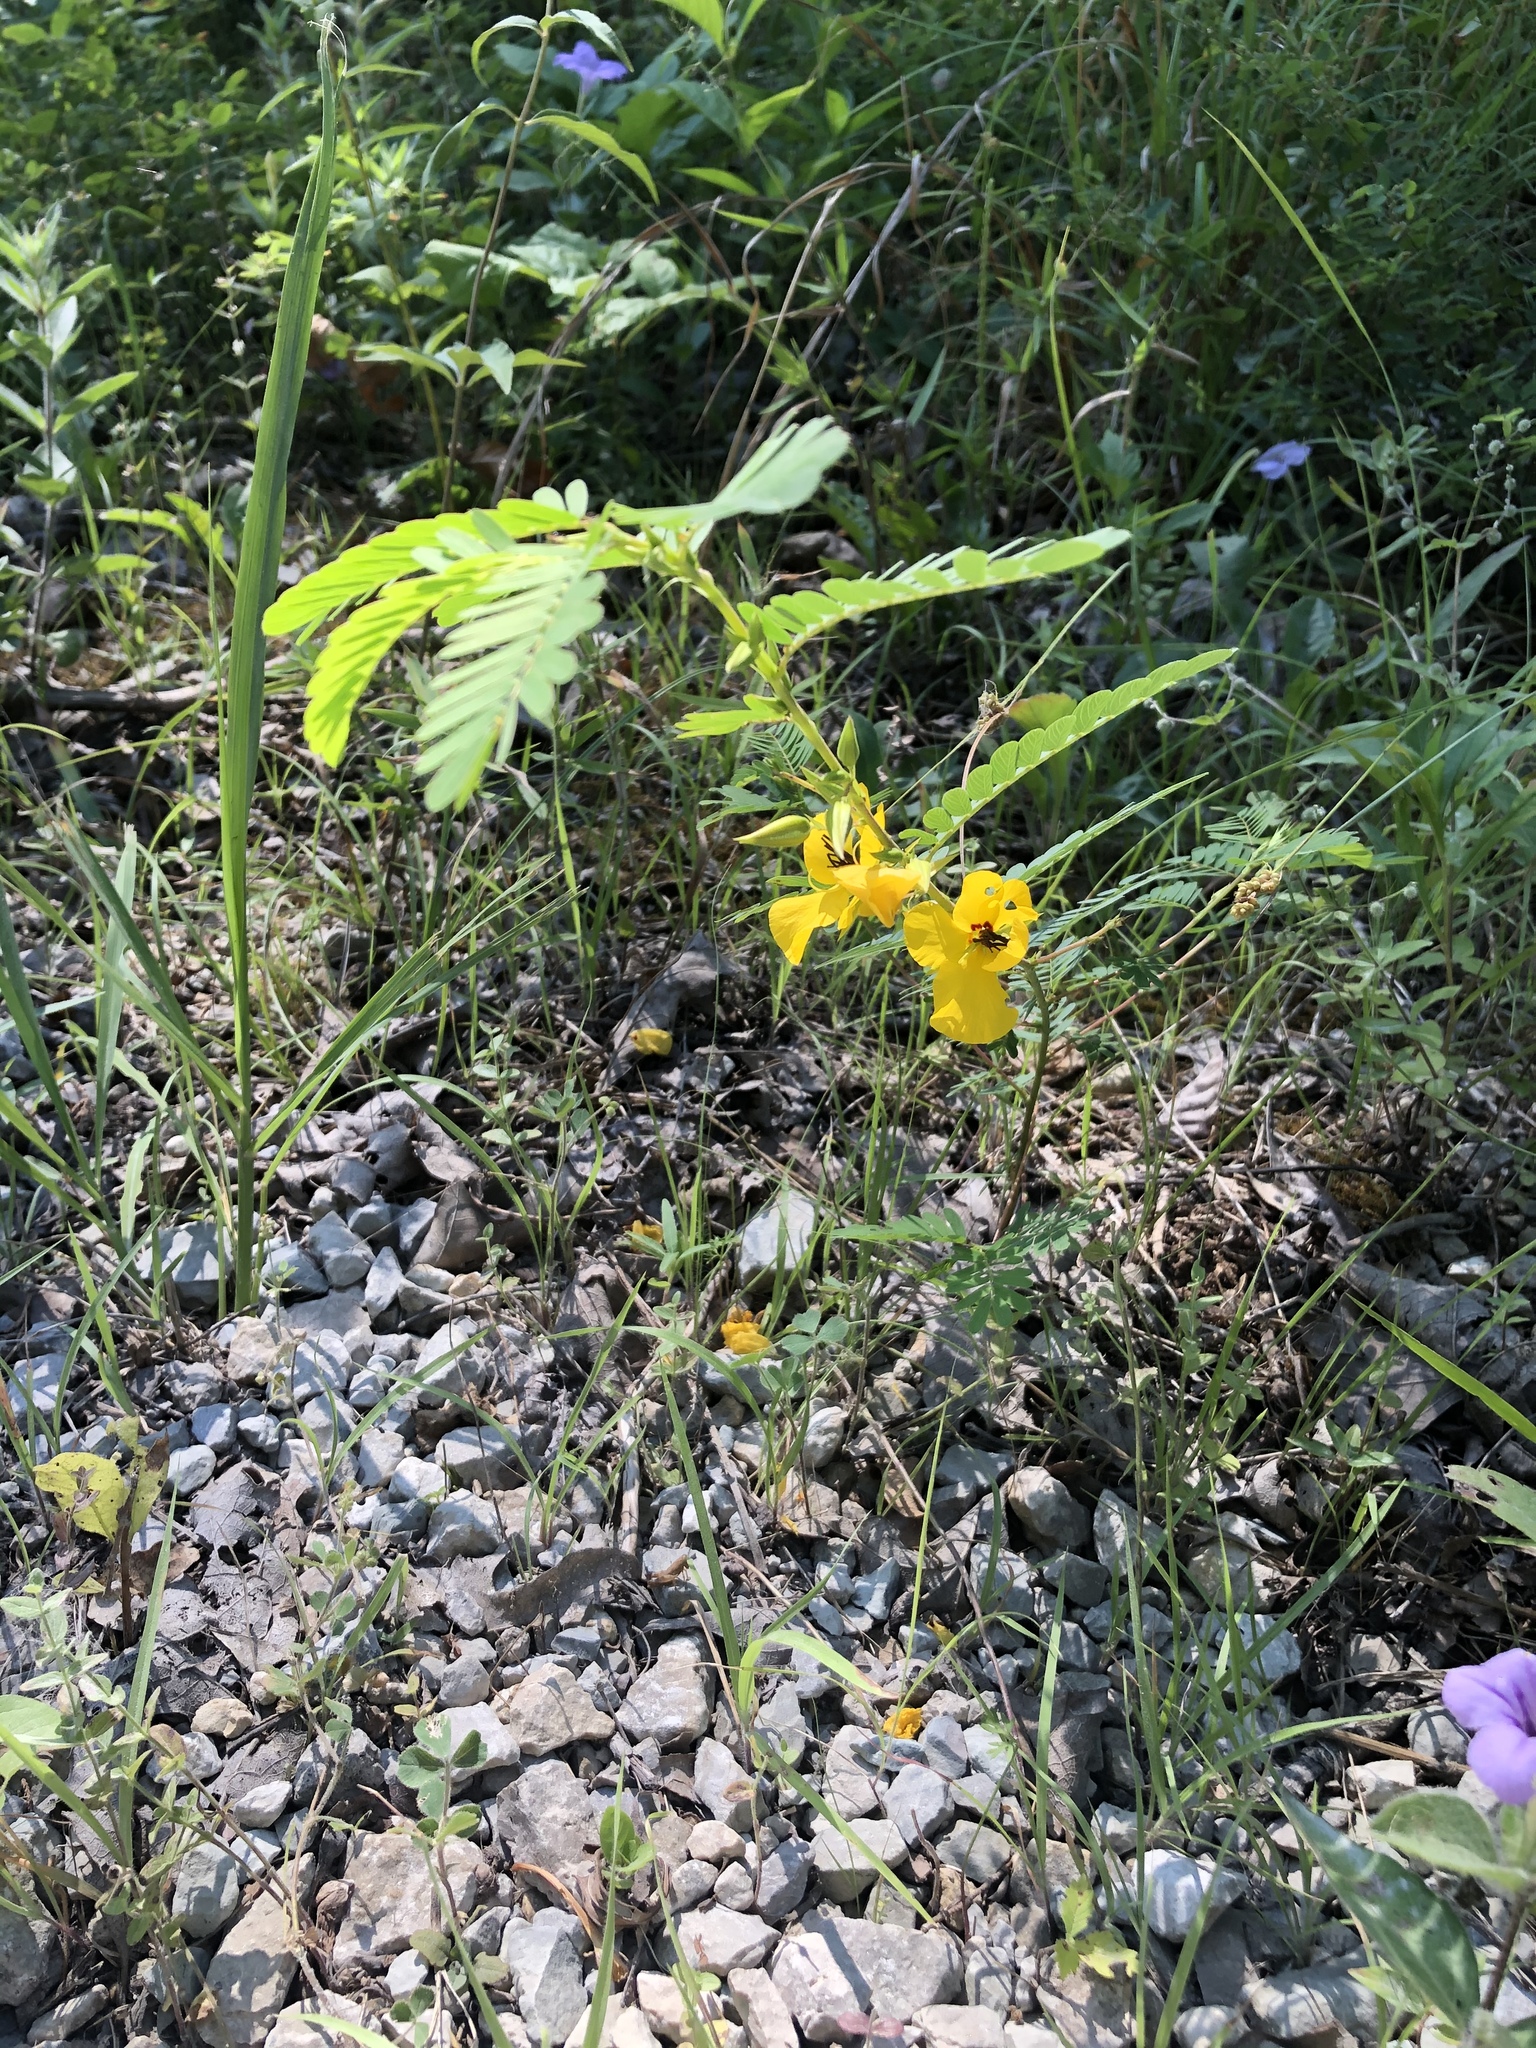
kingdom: Plantae
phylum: Tracheophyta
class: Magnoliopsida
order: Fabales
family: Fabaceae
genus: Chamaecrista
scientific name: Chamaecrista fasciculata
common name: Golden cassia
